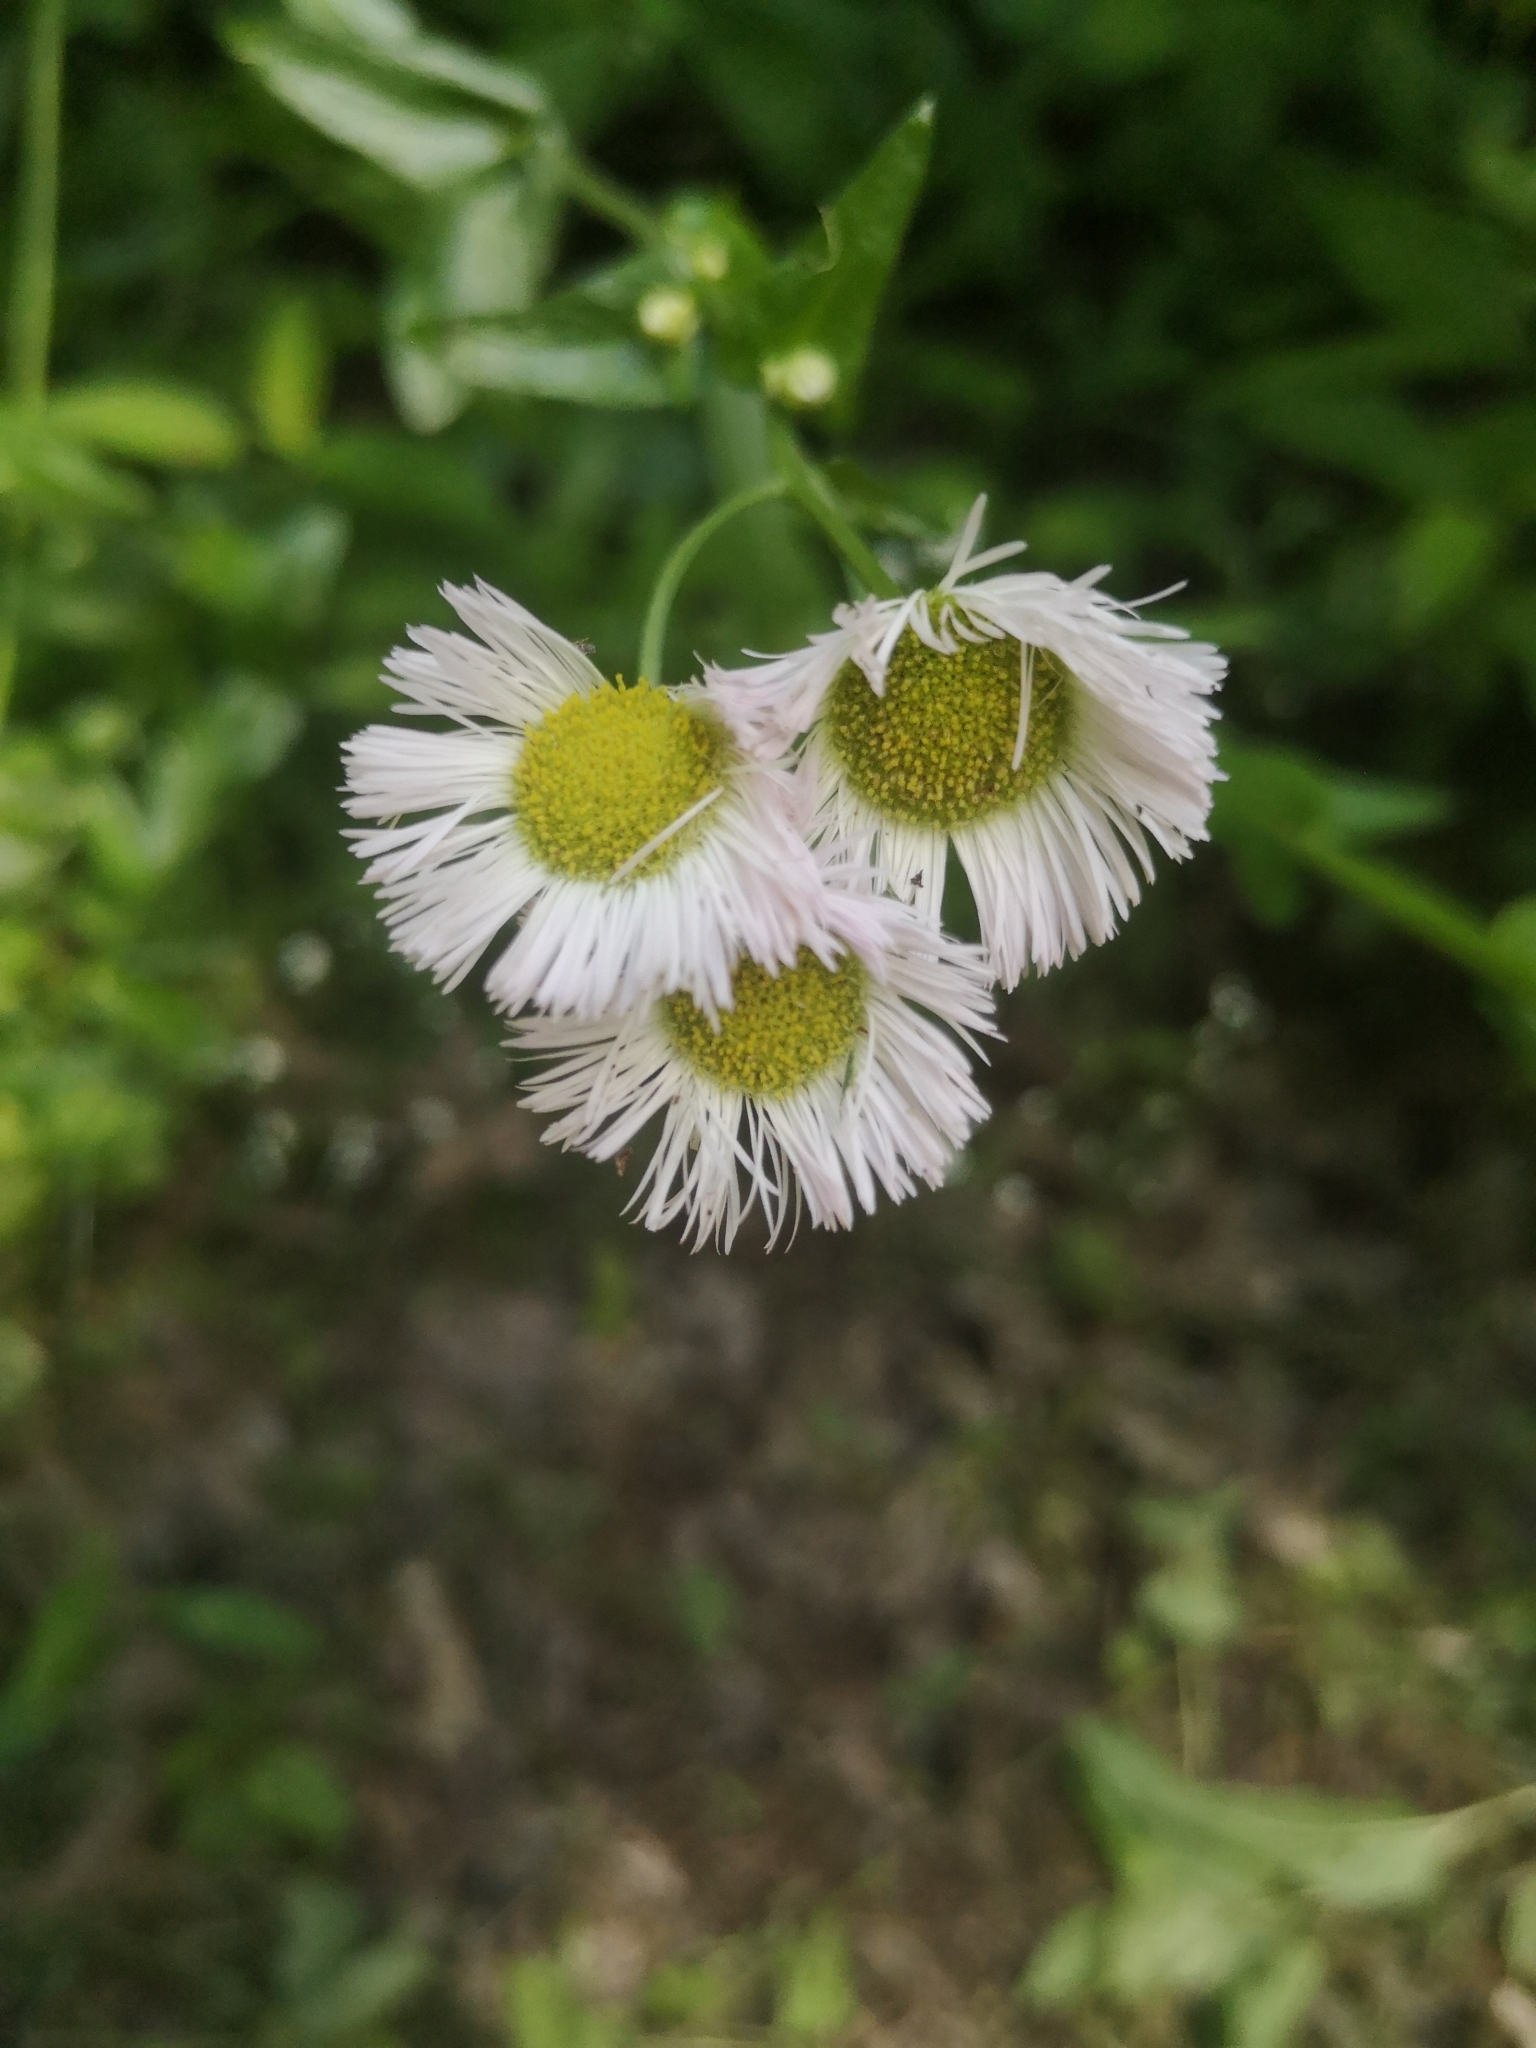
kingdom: Plantae
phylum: Tracheophyta
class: Magnoliopsida
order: Asterales
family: Asteraceae
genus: Erigeron
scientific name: Erigeron philadelphicus
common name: Robin's-plantain
